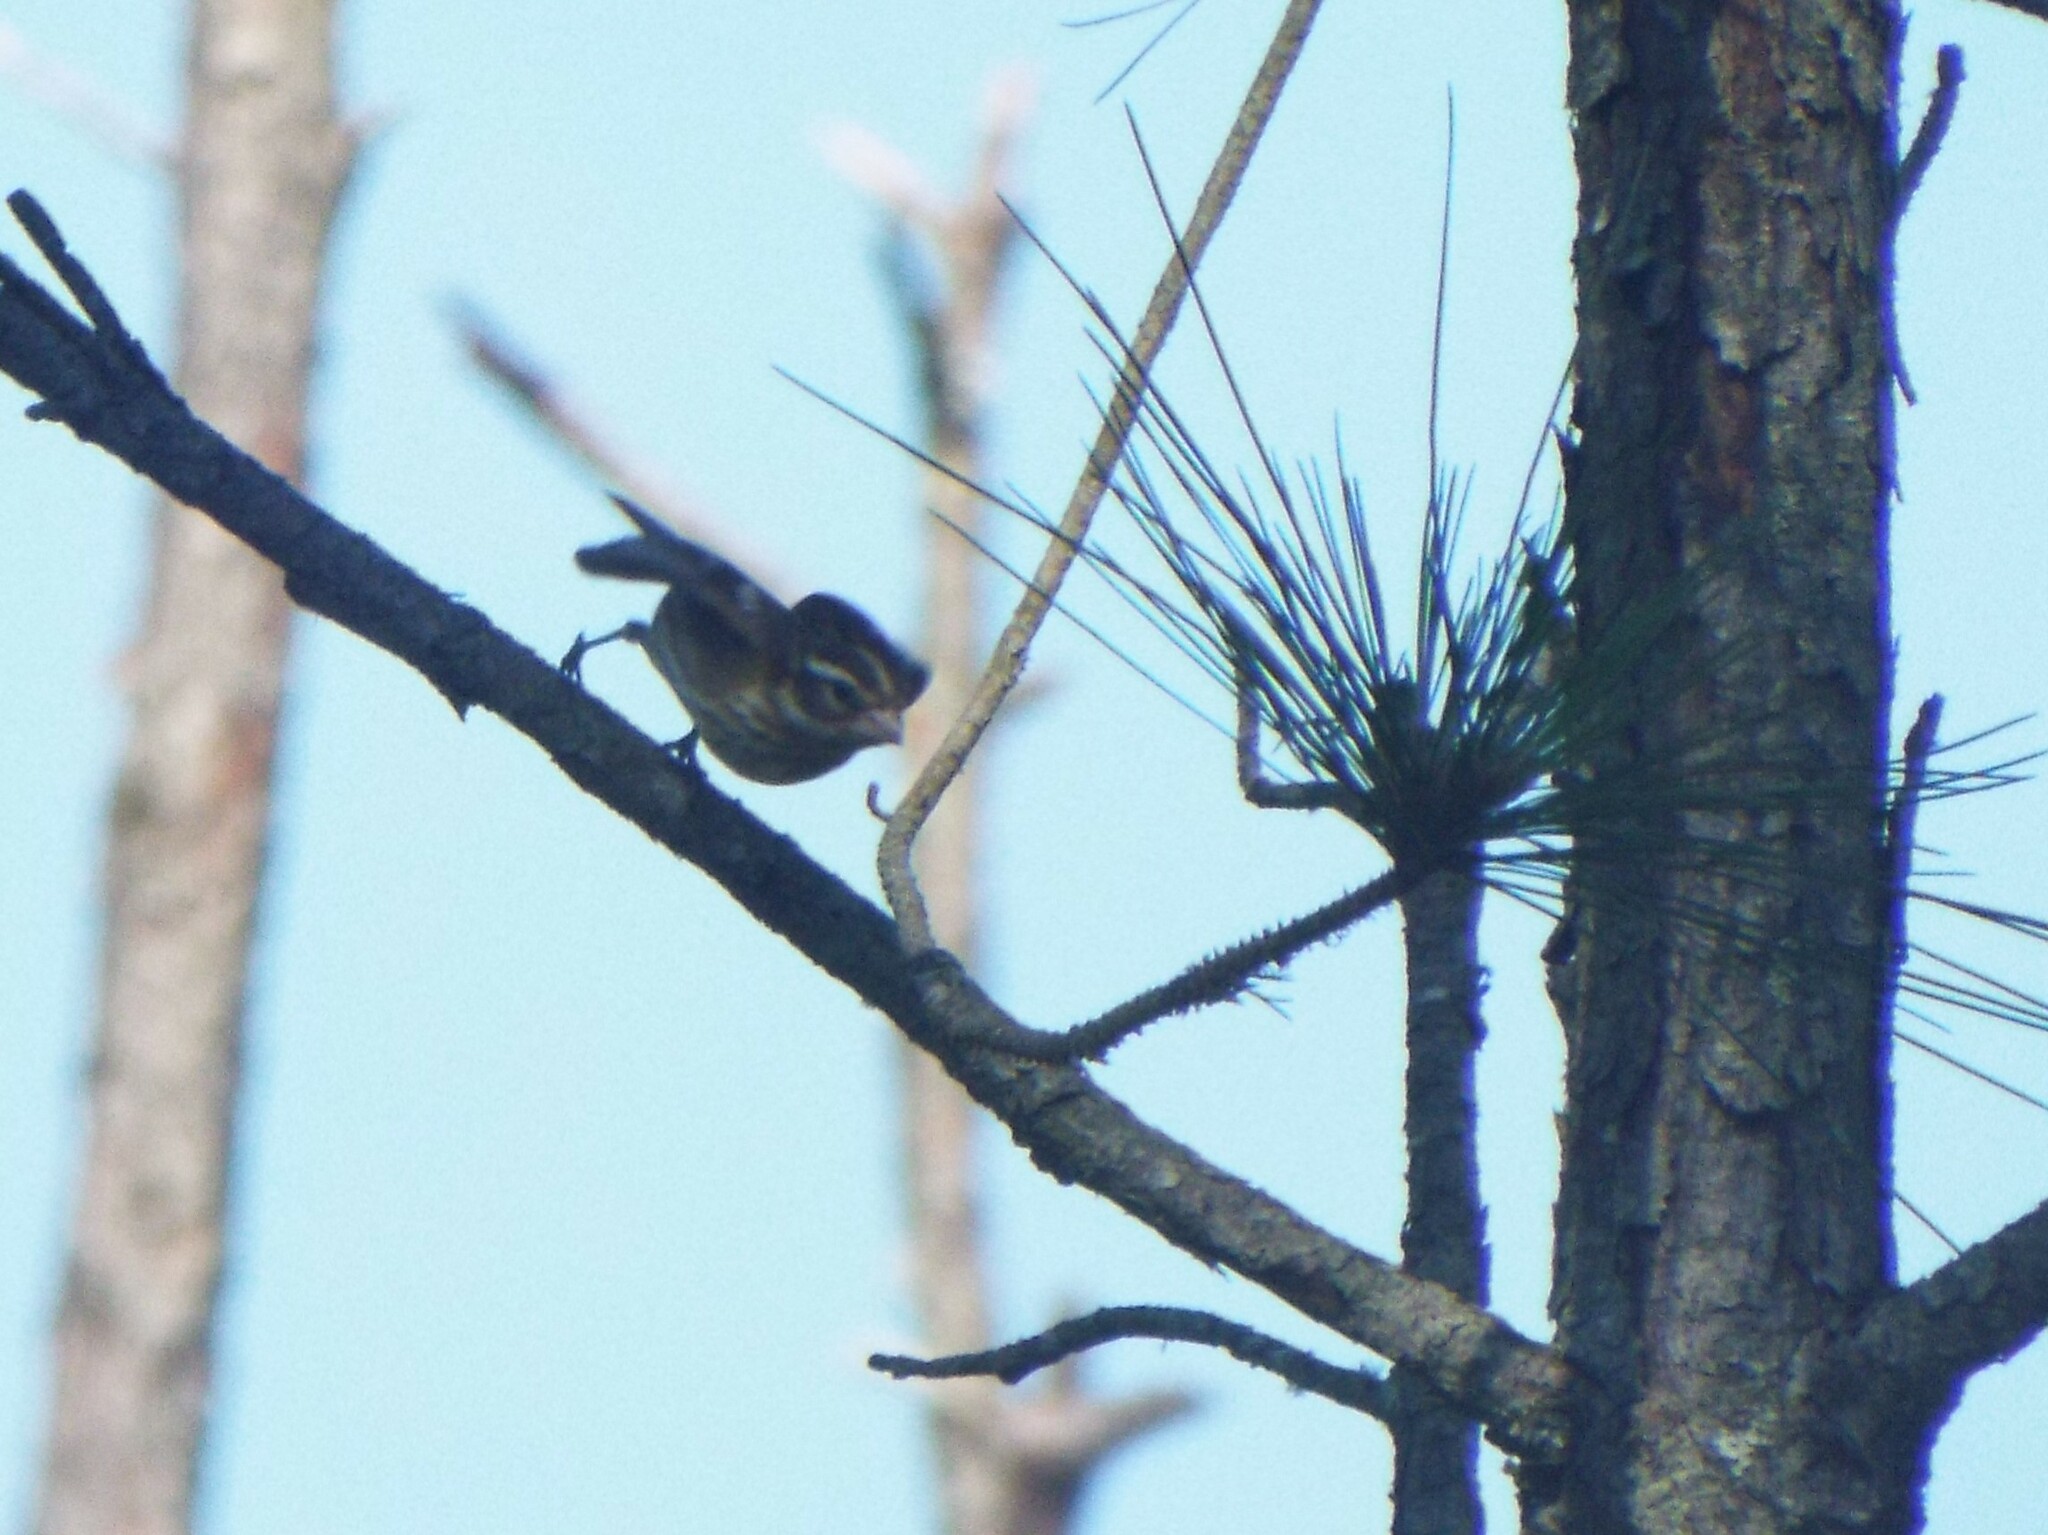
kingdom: Animalia
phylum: Chordata
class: Aves
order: Passeriformes
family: Cardinalidae
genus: Pheucticus
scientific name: Pheucticus ludovicianus
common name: Rose-breasted grosbeak
